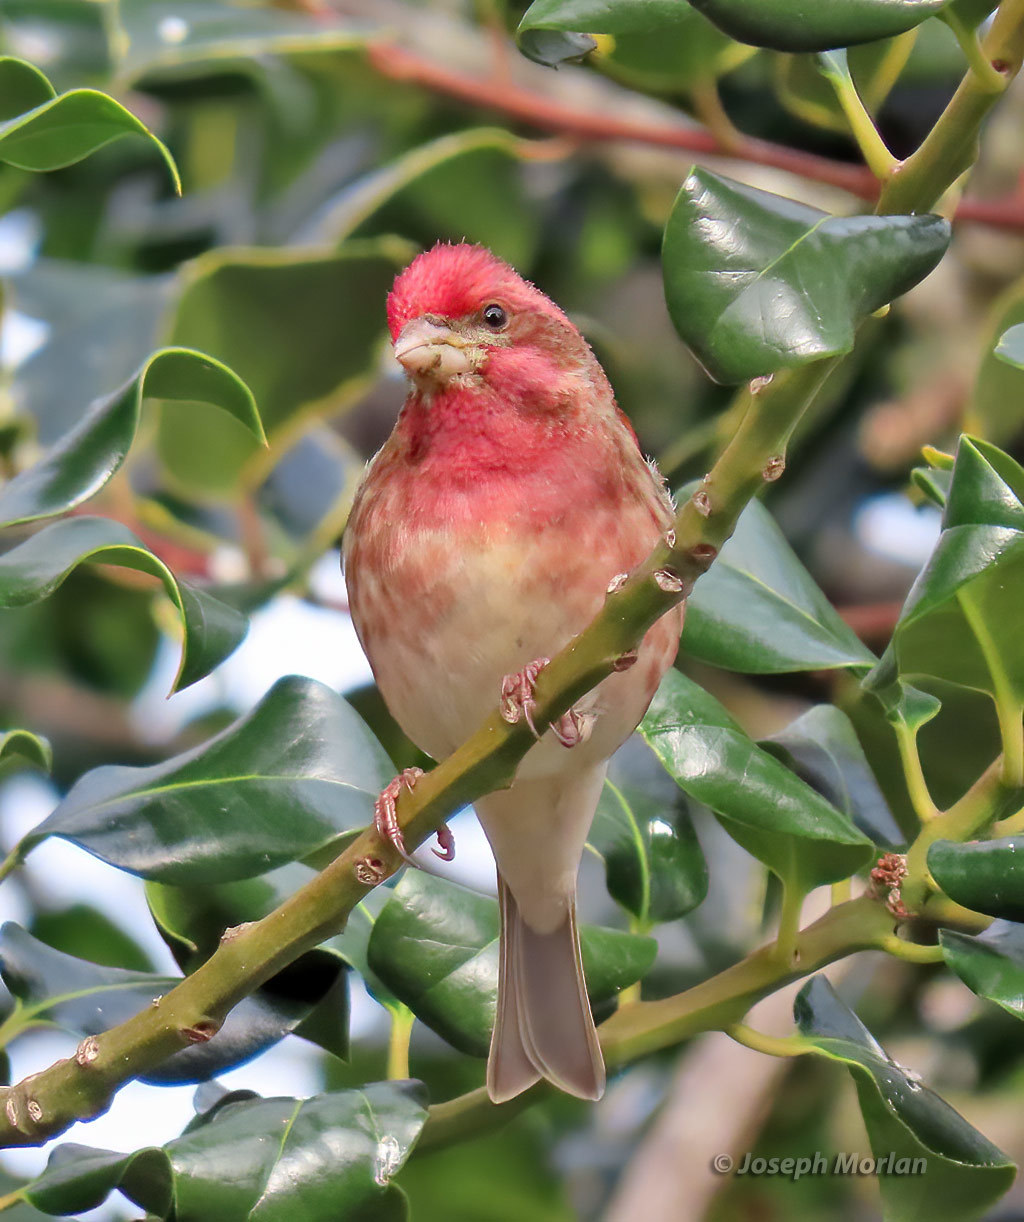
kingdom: Animalia
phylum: Chordata
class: Aves
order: Passeriformes
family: Fringillidae
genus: Haemorhous
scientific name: Haemorhous purpureus
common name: Purple finch
